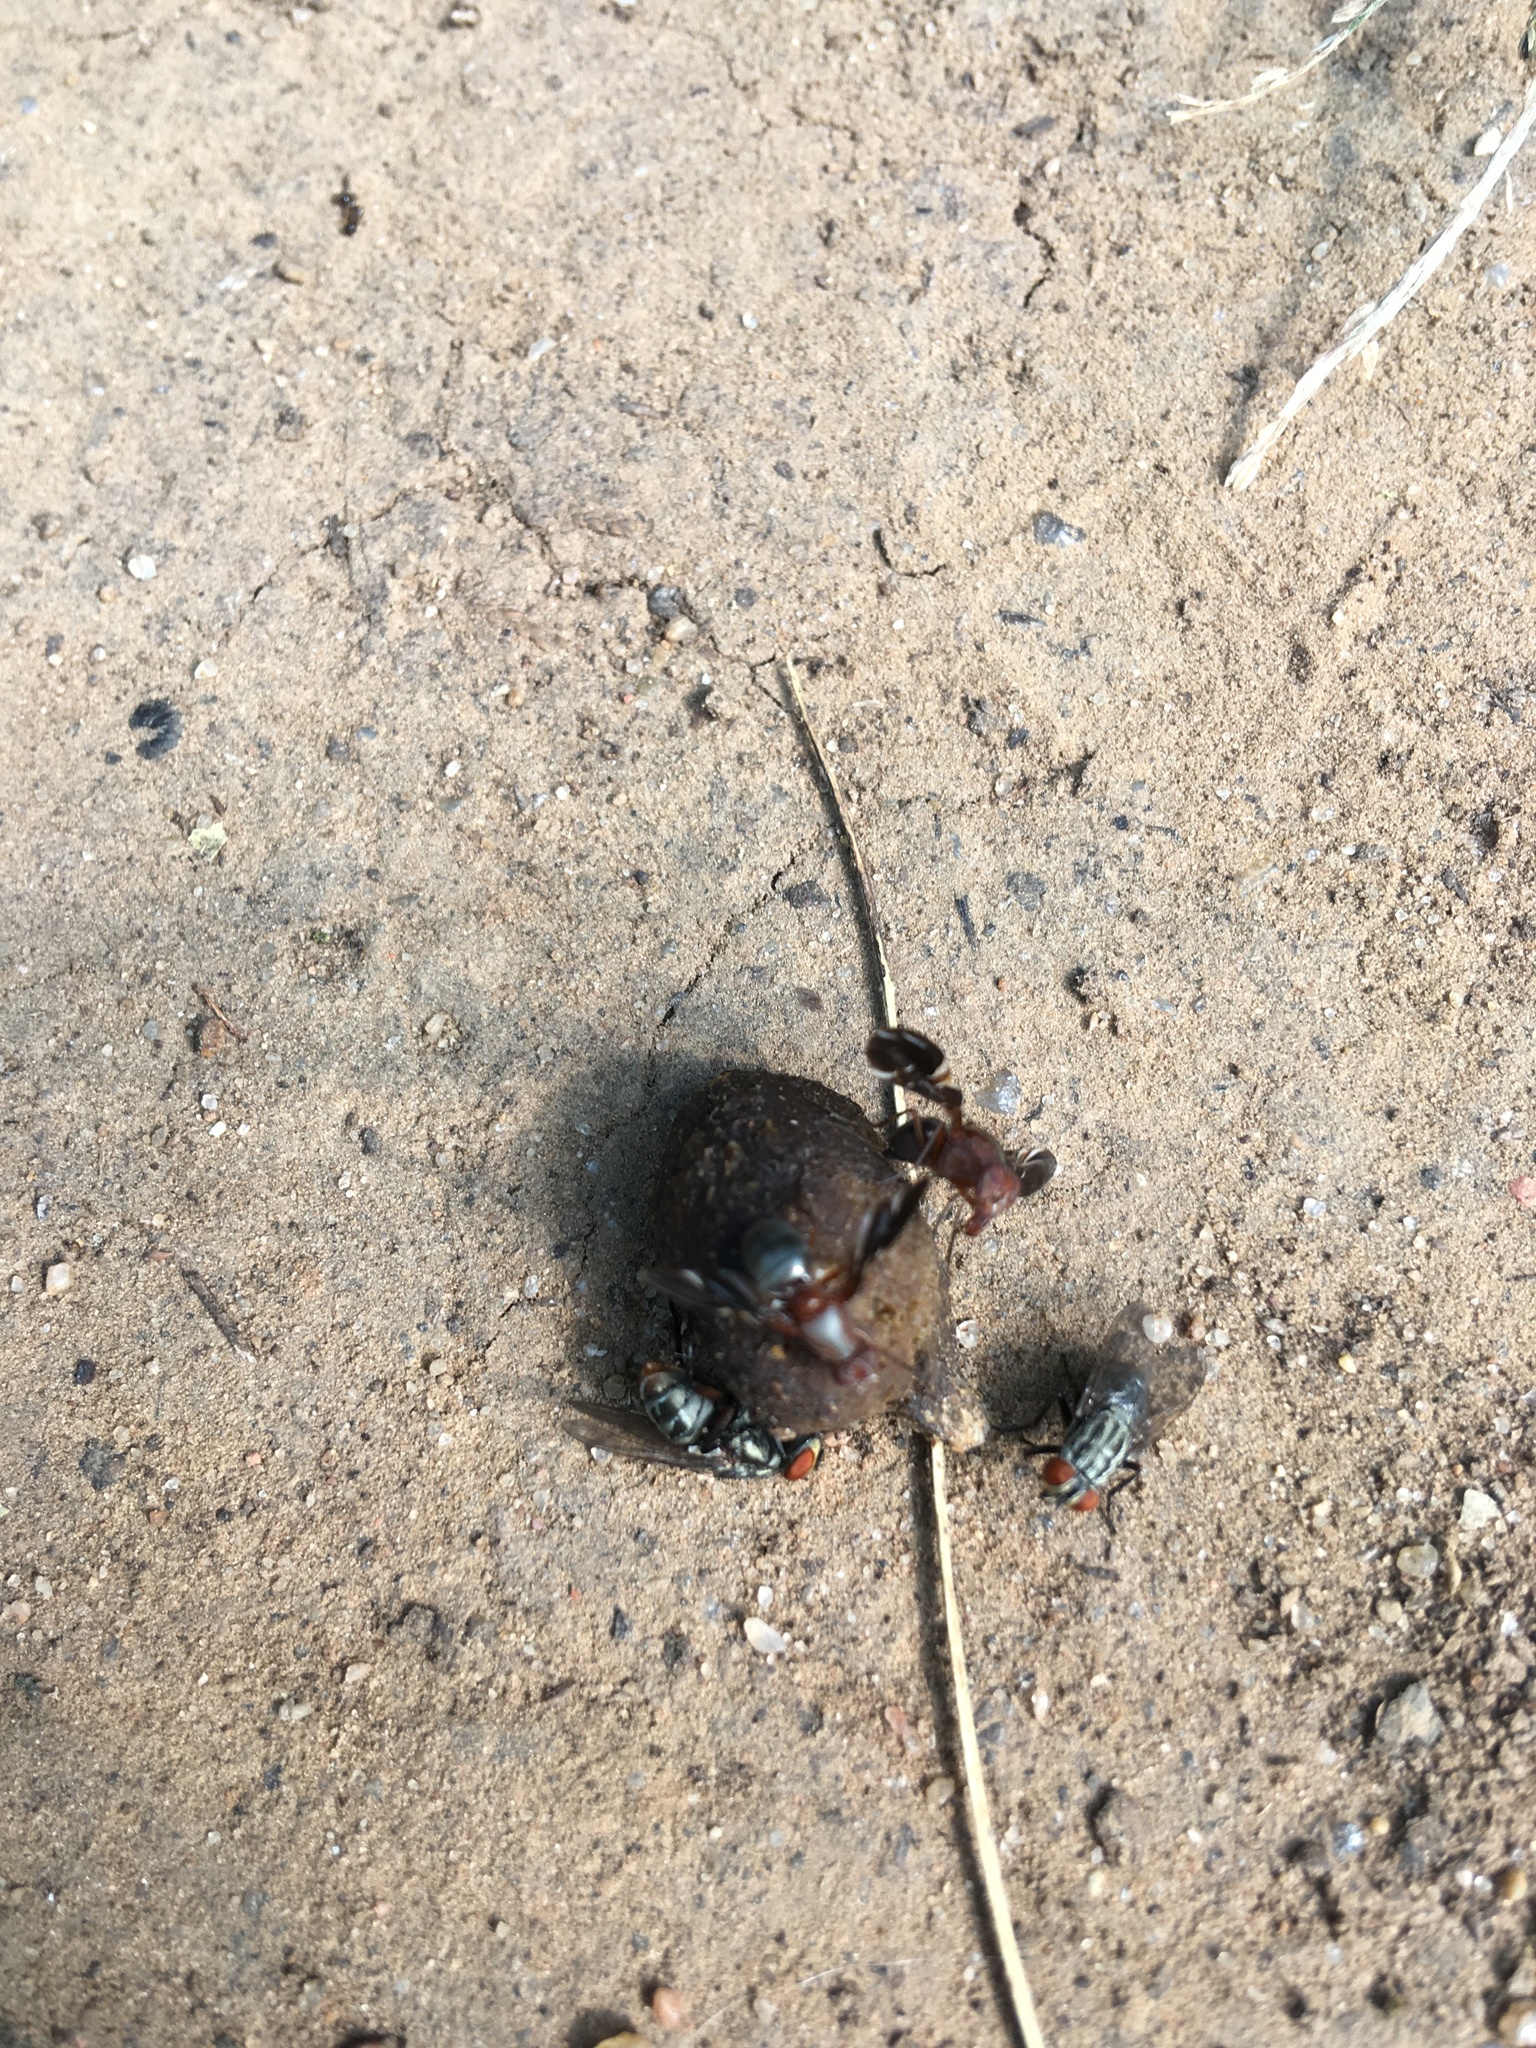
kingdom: Animalia
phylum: Arthropoda
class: Insecta
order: Diptera
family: Ulidiidae
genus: Delphinia
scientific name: Delphinia picta
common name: Common picture-winged fly
